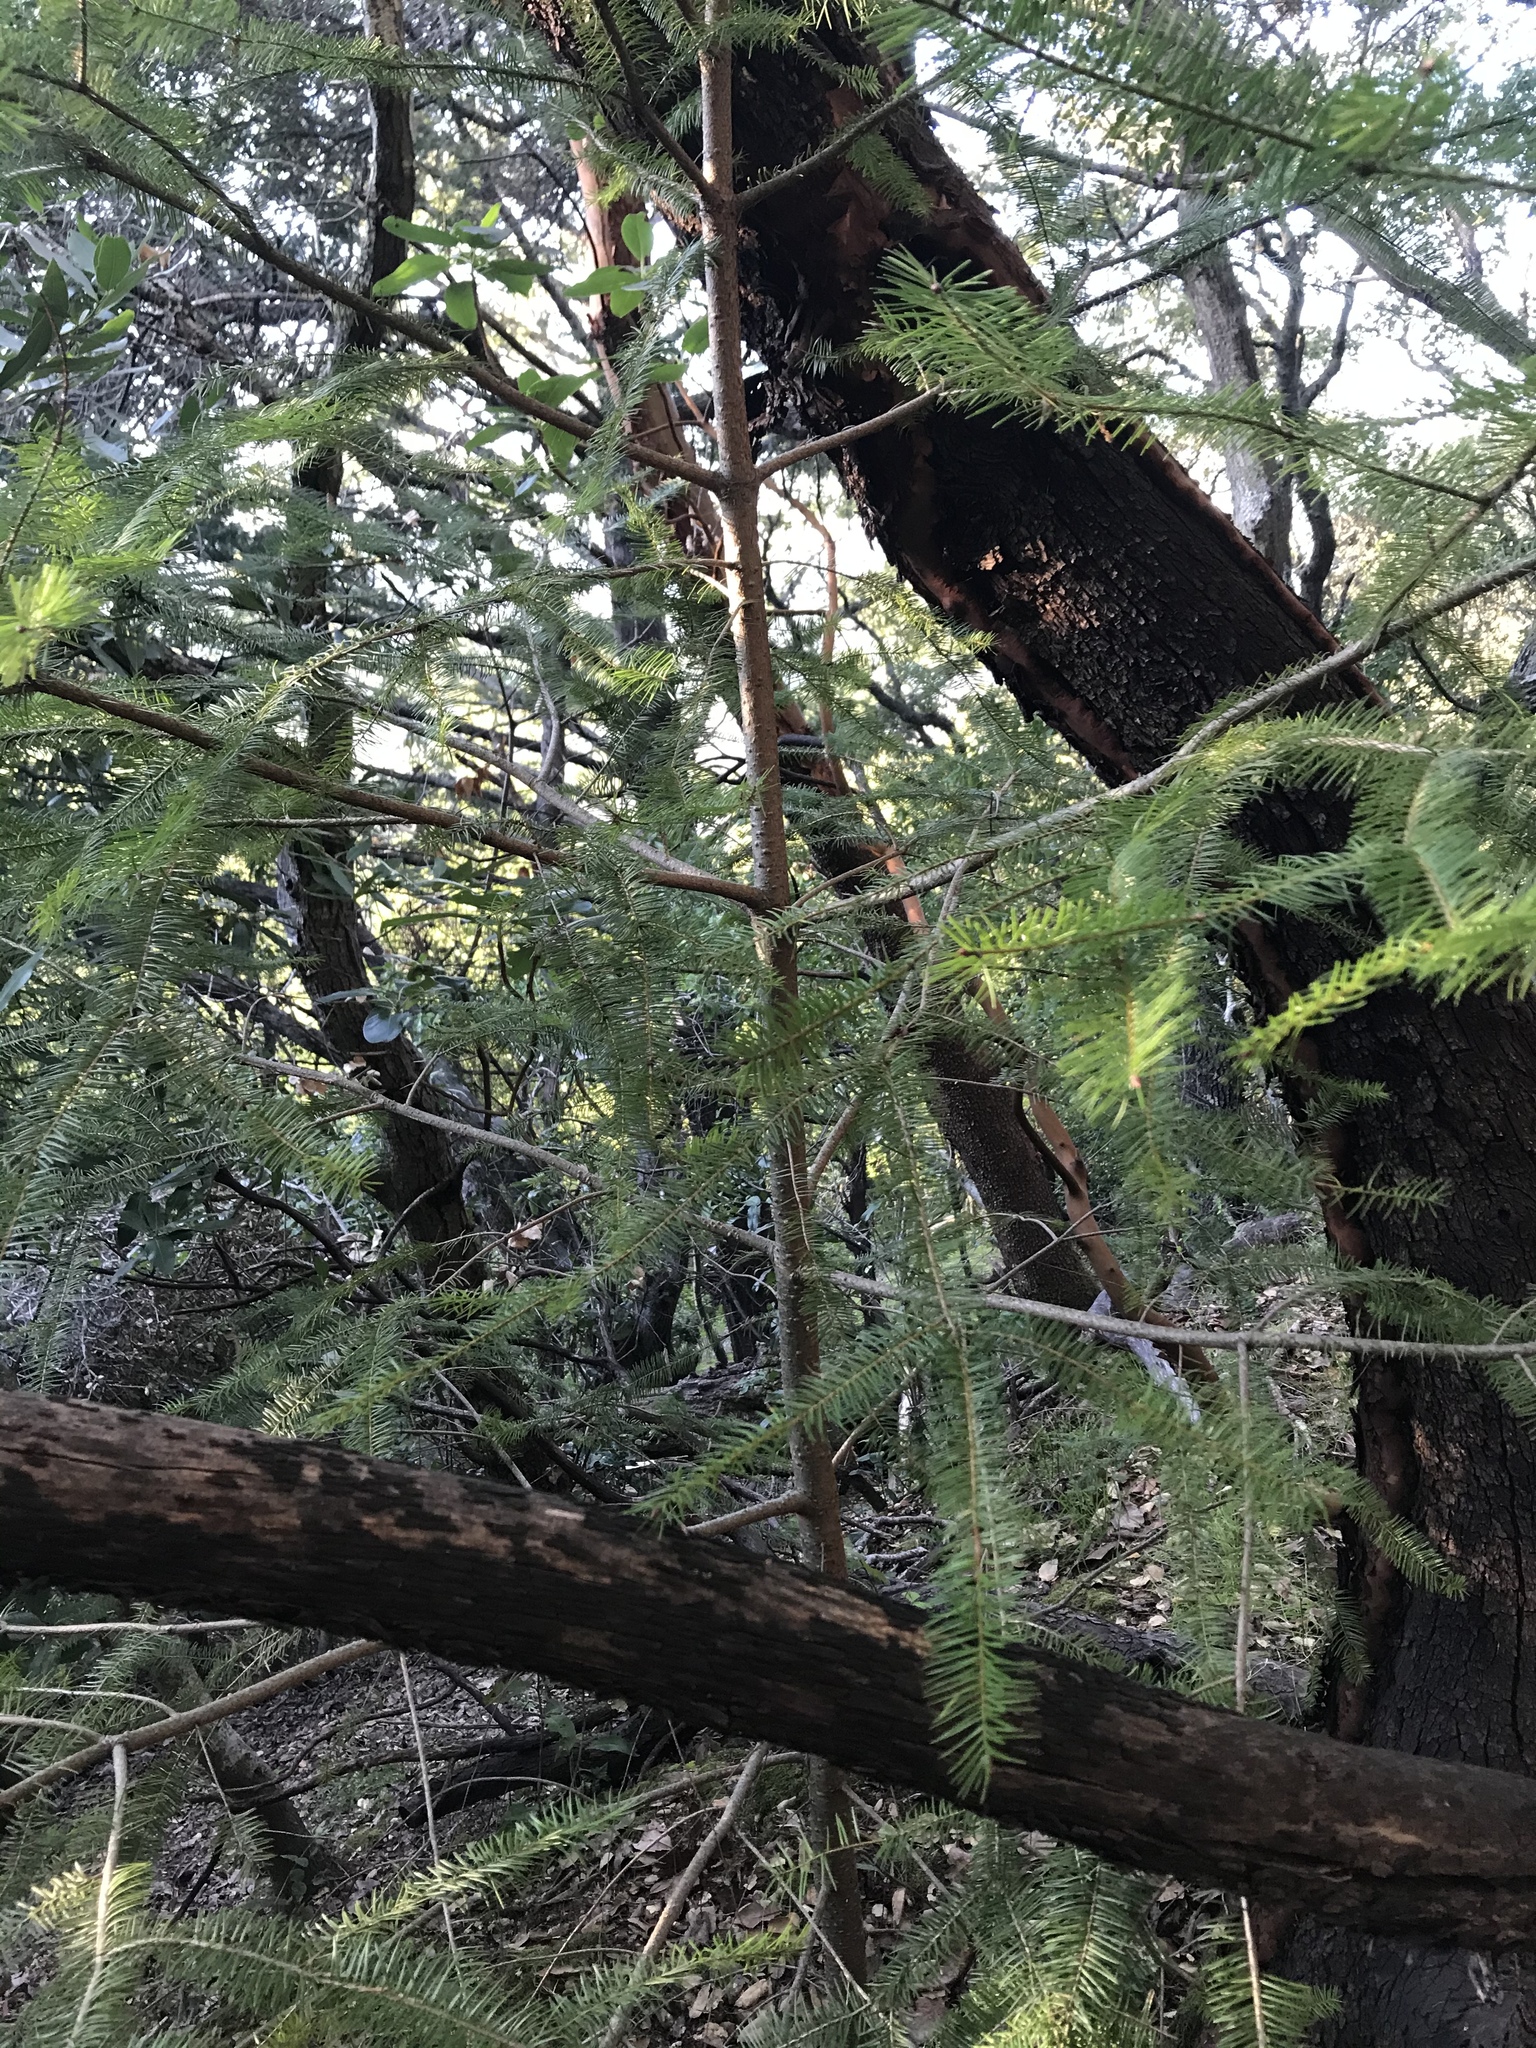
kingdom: Plantae
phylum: Tracheophyta
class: Pinopsida
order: Pinales
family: Pinaceae
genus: Pseudotsuga
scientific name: Pseudotsuga menziesii
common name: Douglas fir
